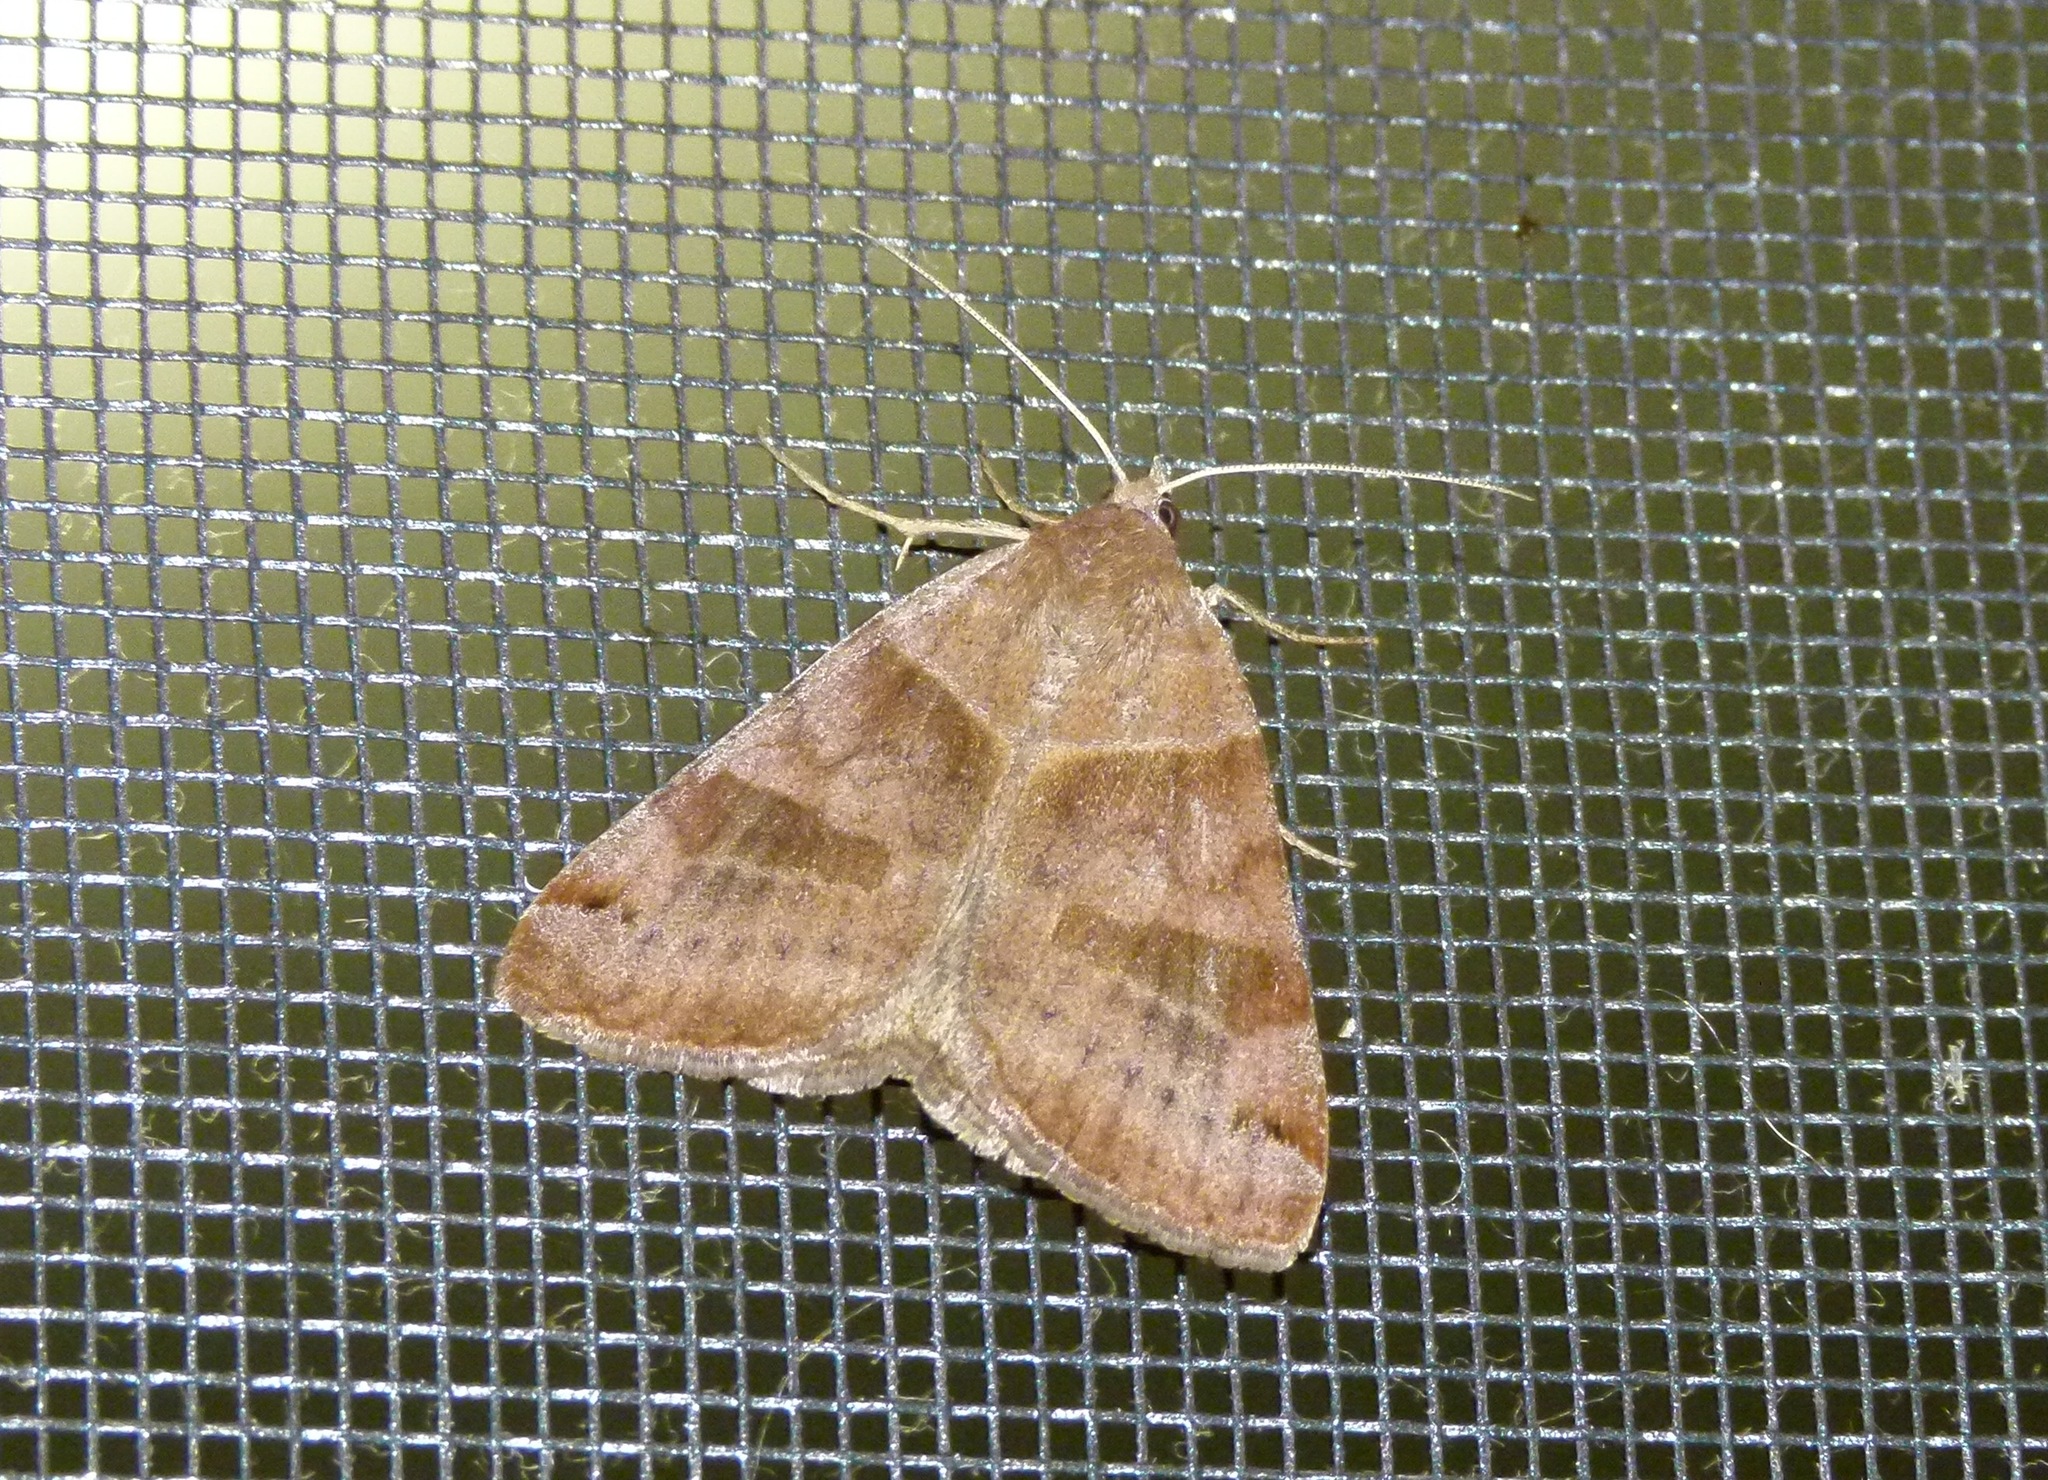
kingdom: Animalia
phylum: Arthropoda
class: Insecta
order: Lepidoptera
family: Erebidae
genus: Caenurgina
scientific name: Caenurgina crassiuscula
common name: Double-barred
